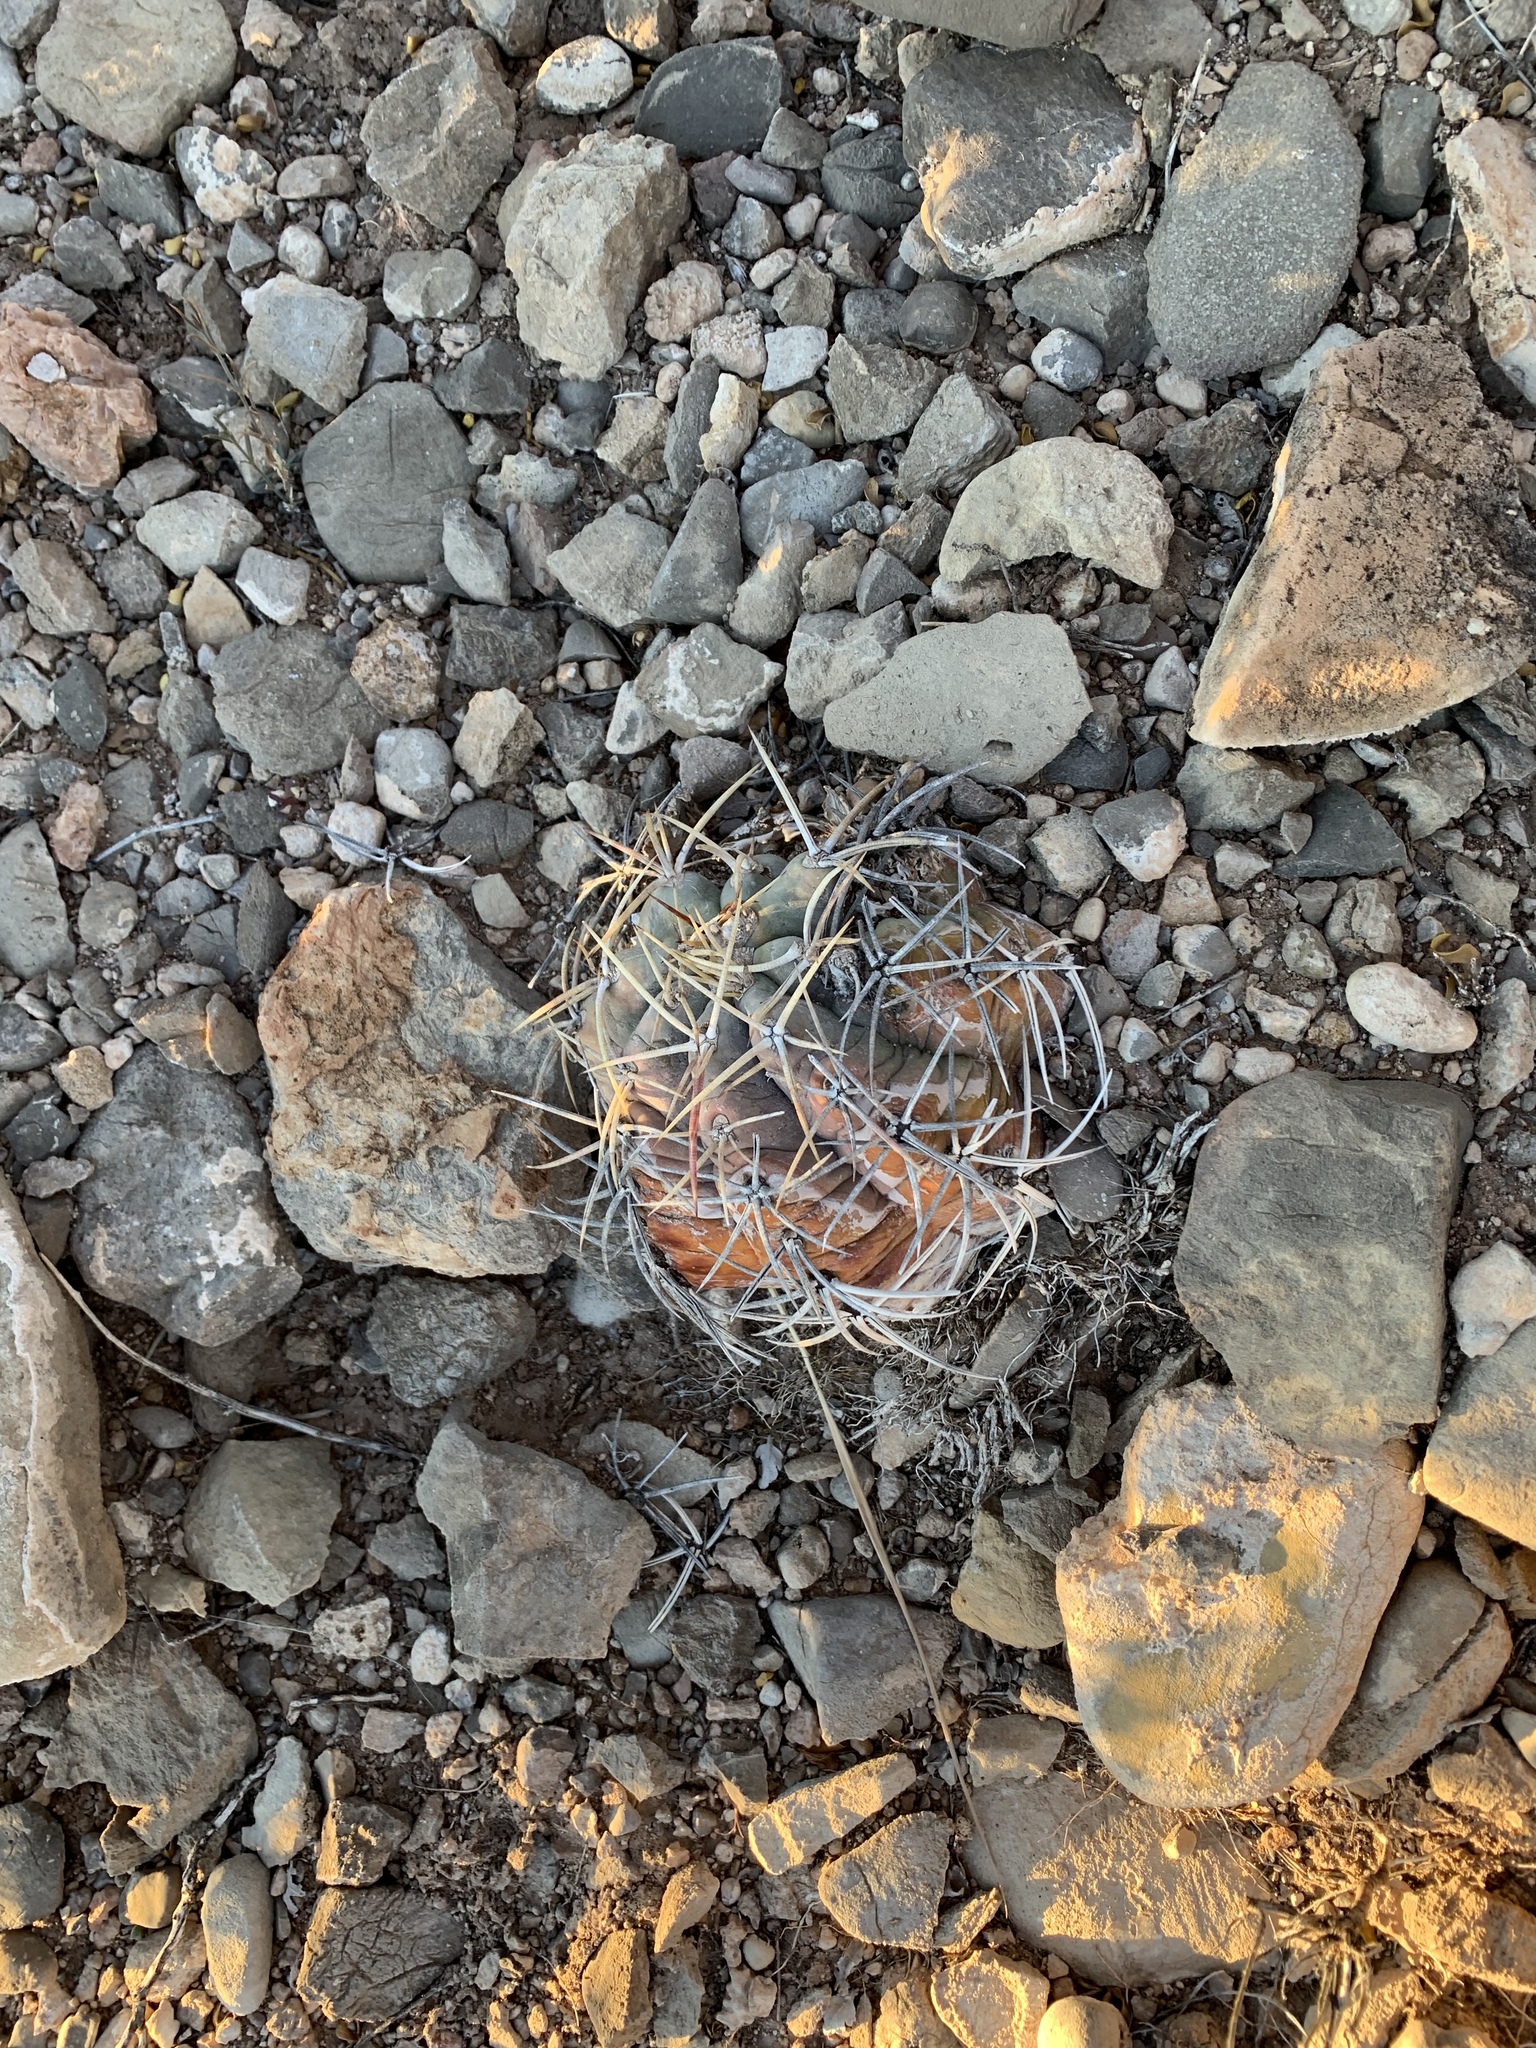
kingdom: Plantae
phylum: Tracheophyta
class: Magnoliopsida
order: Caryophyllales
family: Cactaceae
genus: Echinocactus
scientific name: Echinocactus horizonthalonius
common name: Devilshead
